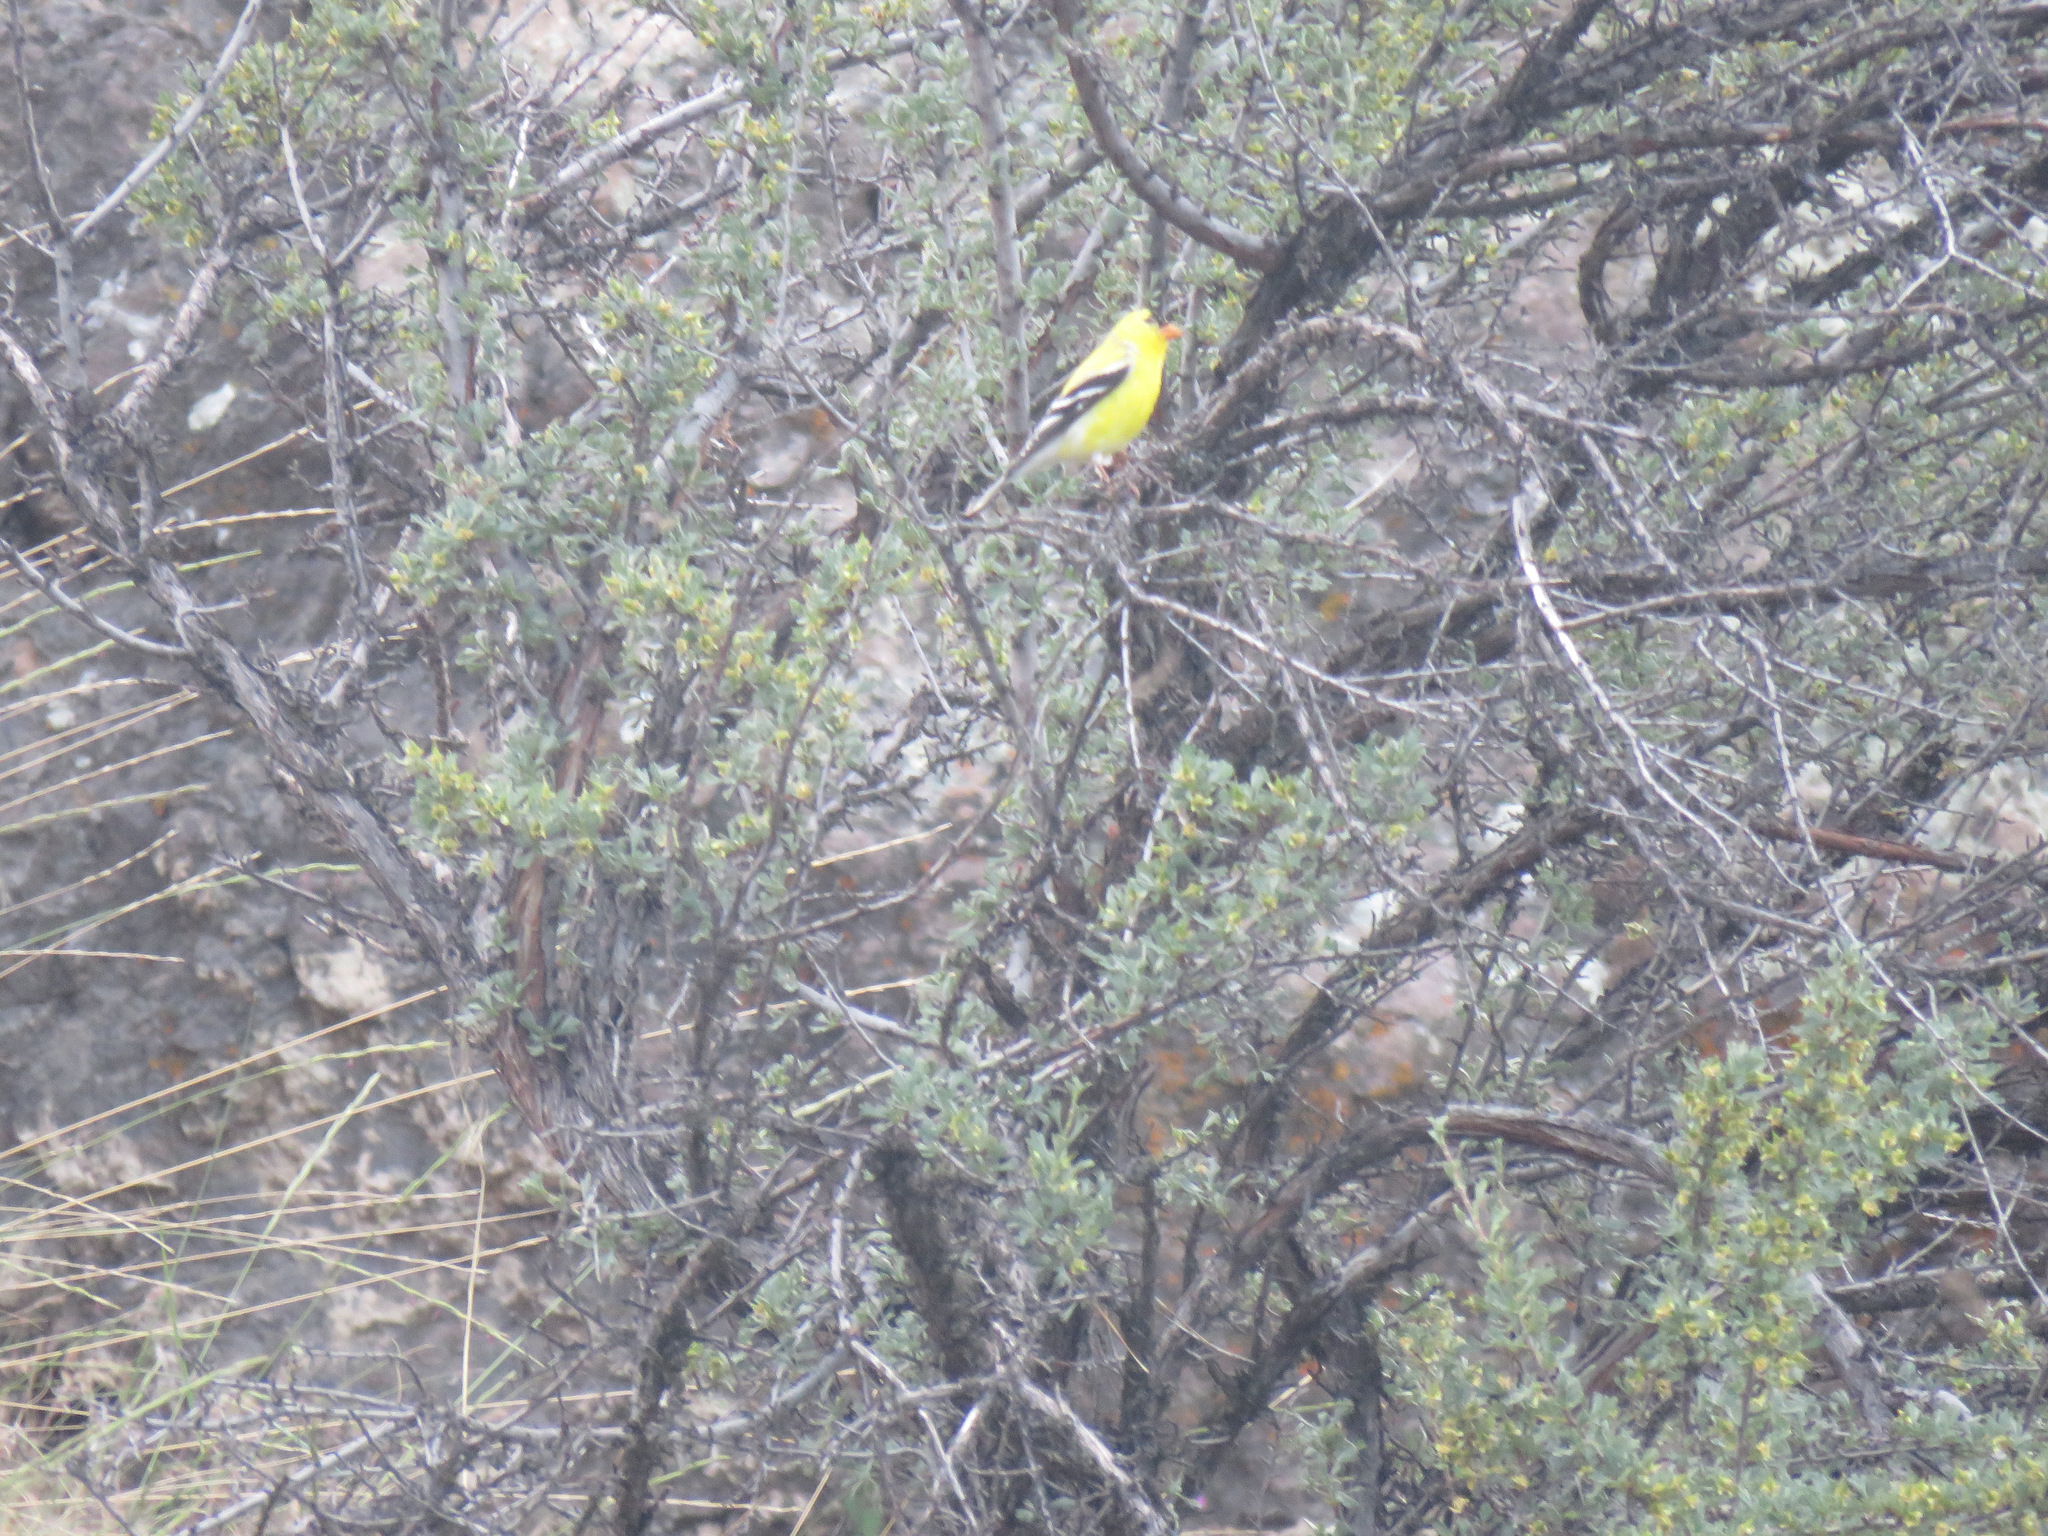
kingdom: Animalia
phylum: Chordata
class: Aves
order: Passeriformes
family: Fringillidae
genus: Spinus
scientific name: Spinus tristis
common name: American goldfinch
